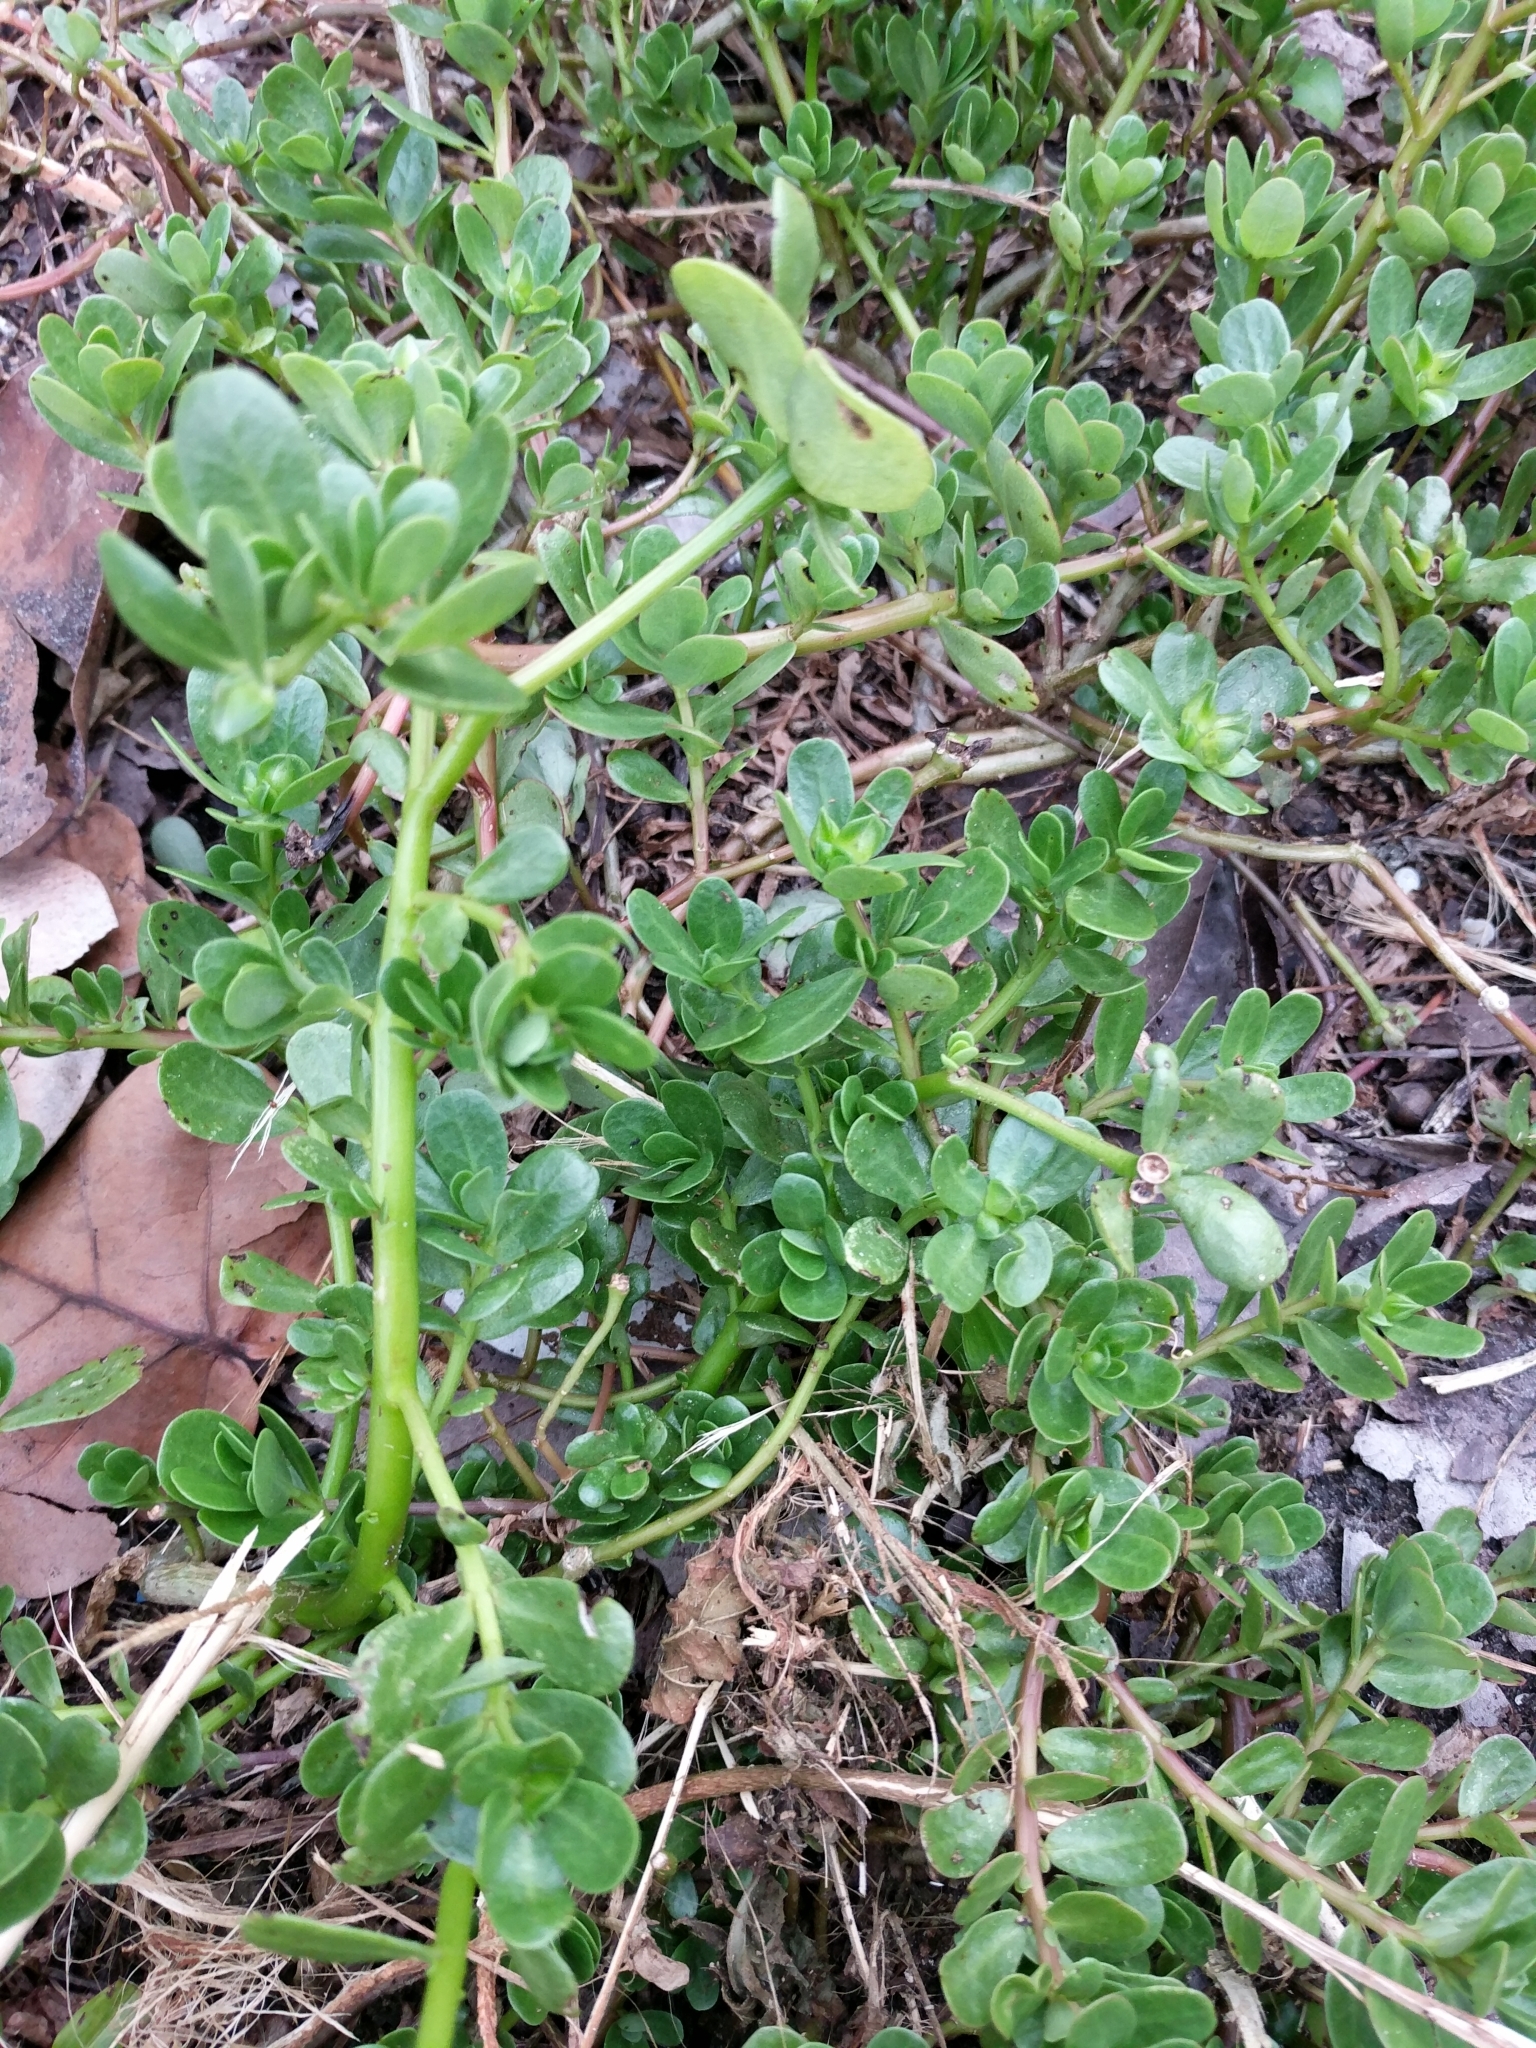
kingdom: Plantae
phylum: Tracheophyta
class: Magnoliopsida
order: Caryophyllales
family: Portulacaceae
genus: Portulaca
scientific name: Portulaca oleracea
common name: Common purslane
